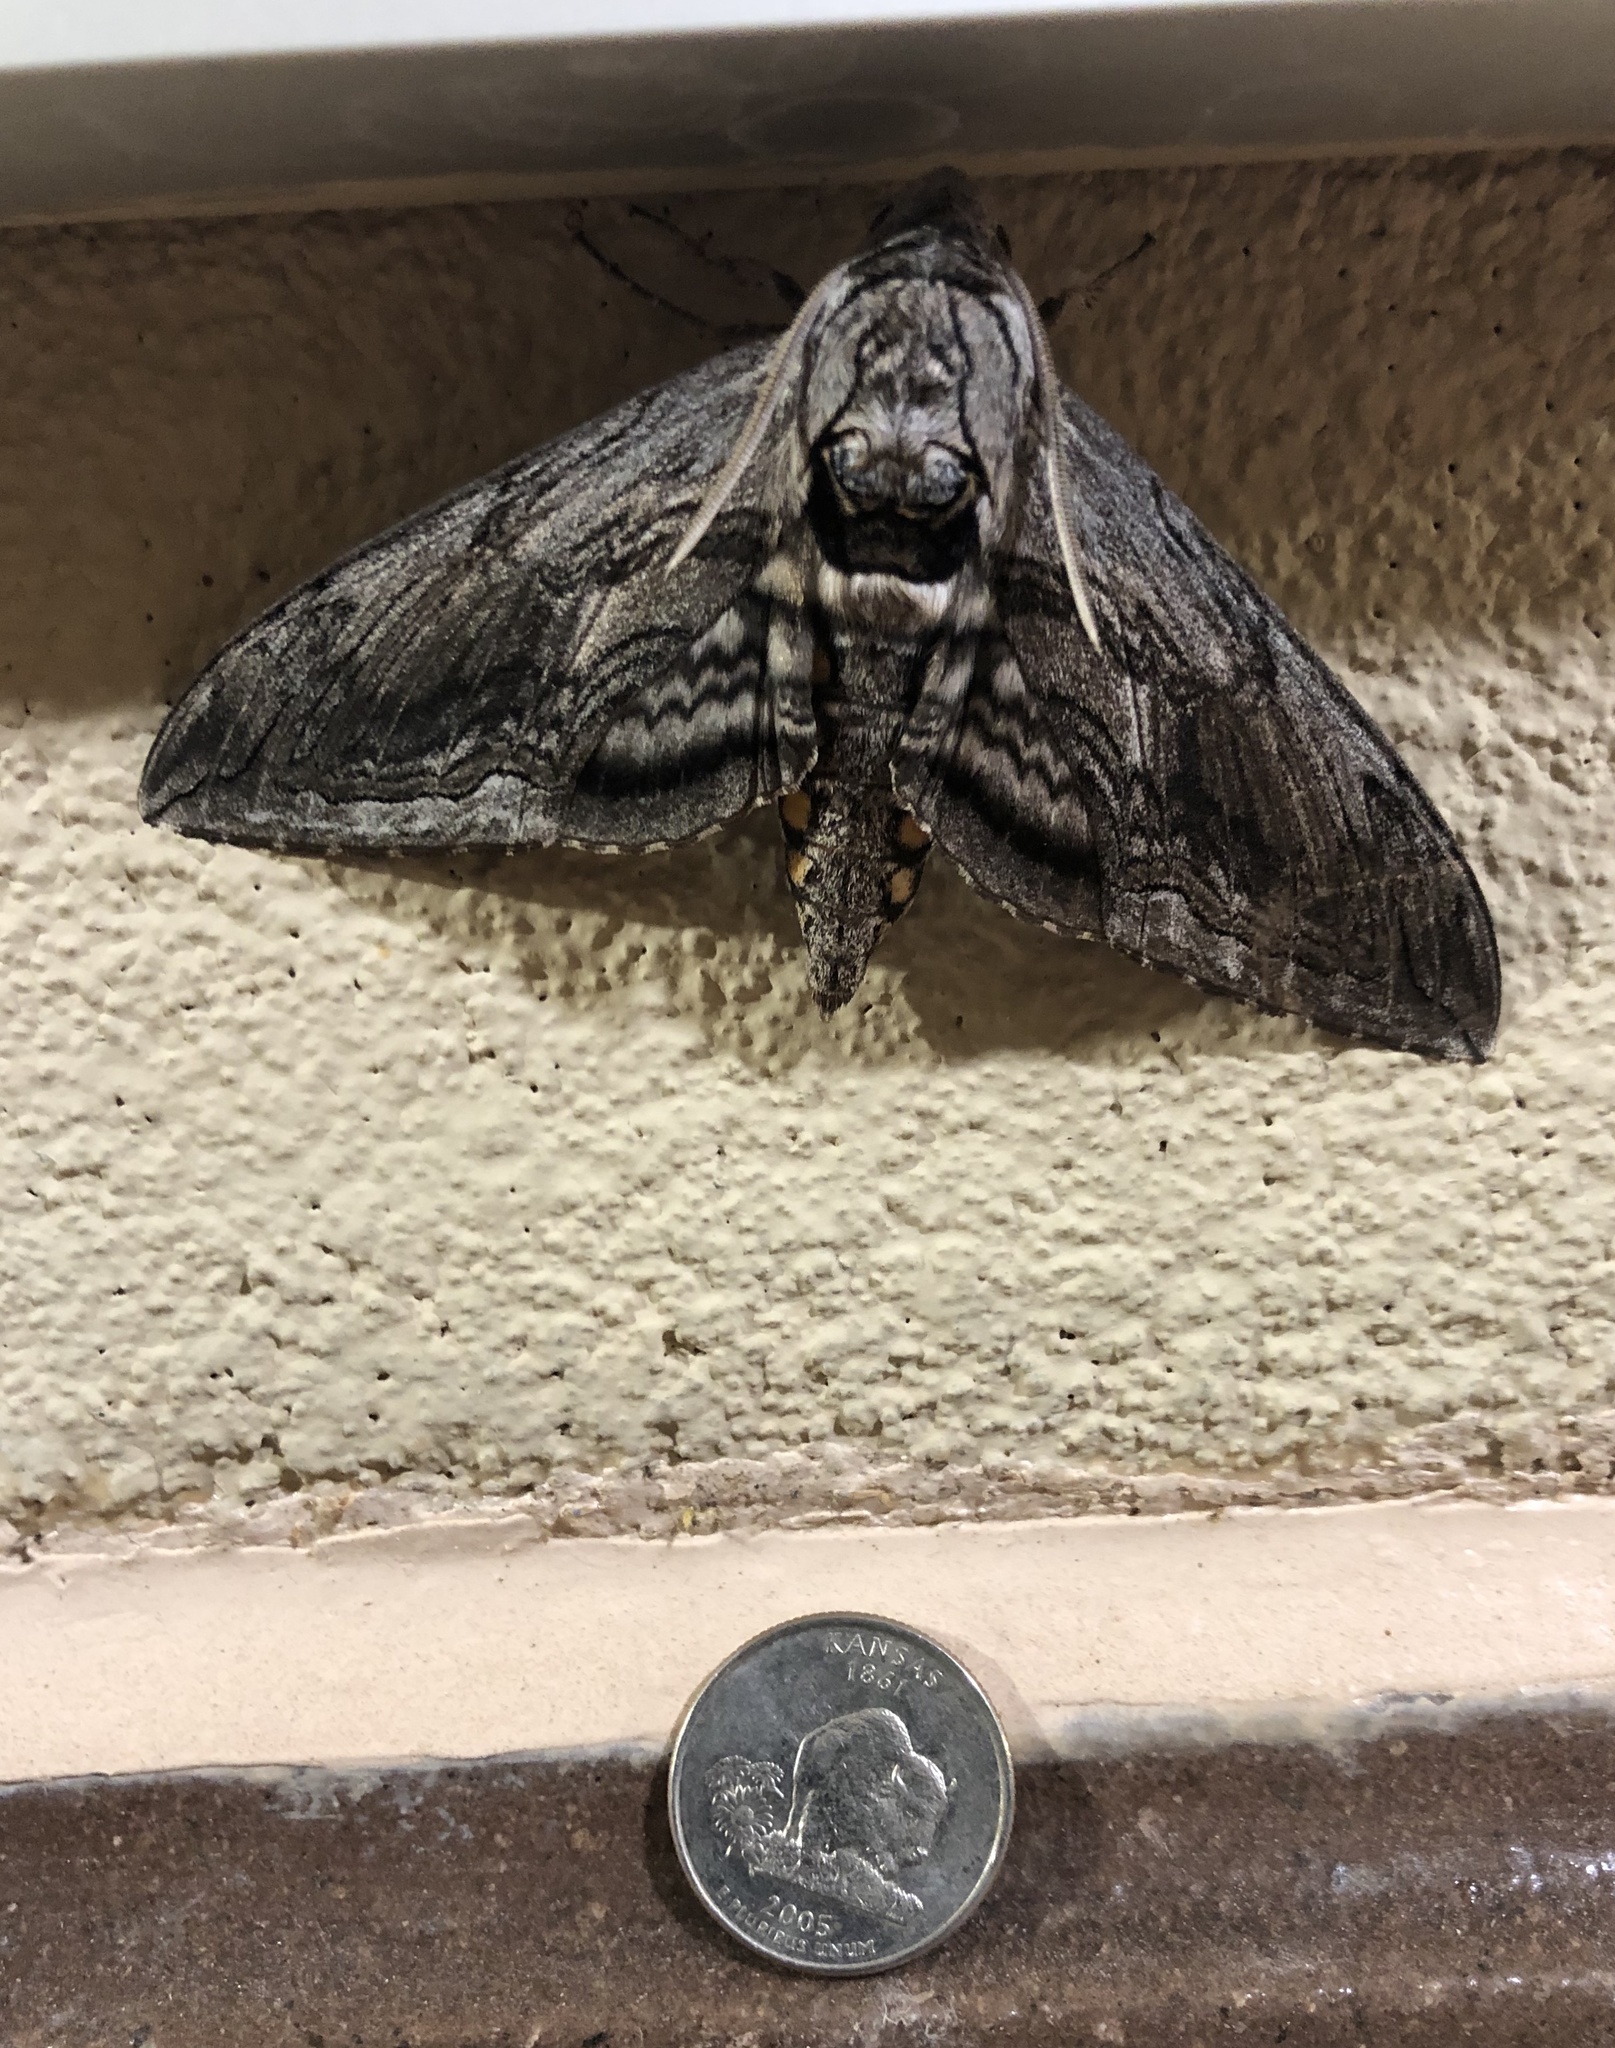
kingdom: Animalia
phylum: Arthropoda
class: Insecta
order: Lepidoptera
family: Sphingidae
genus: Manduca
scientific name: Manduca quinquemaculatus
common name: Five-spotted hawk-moth
